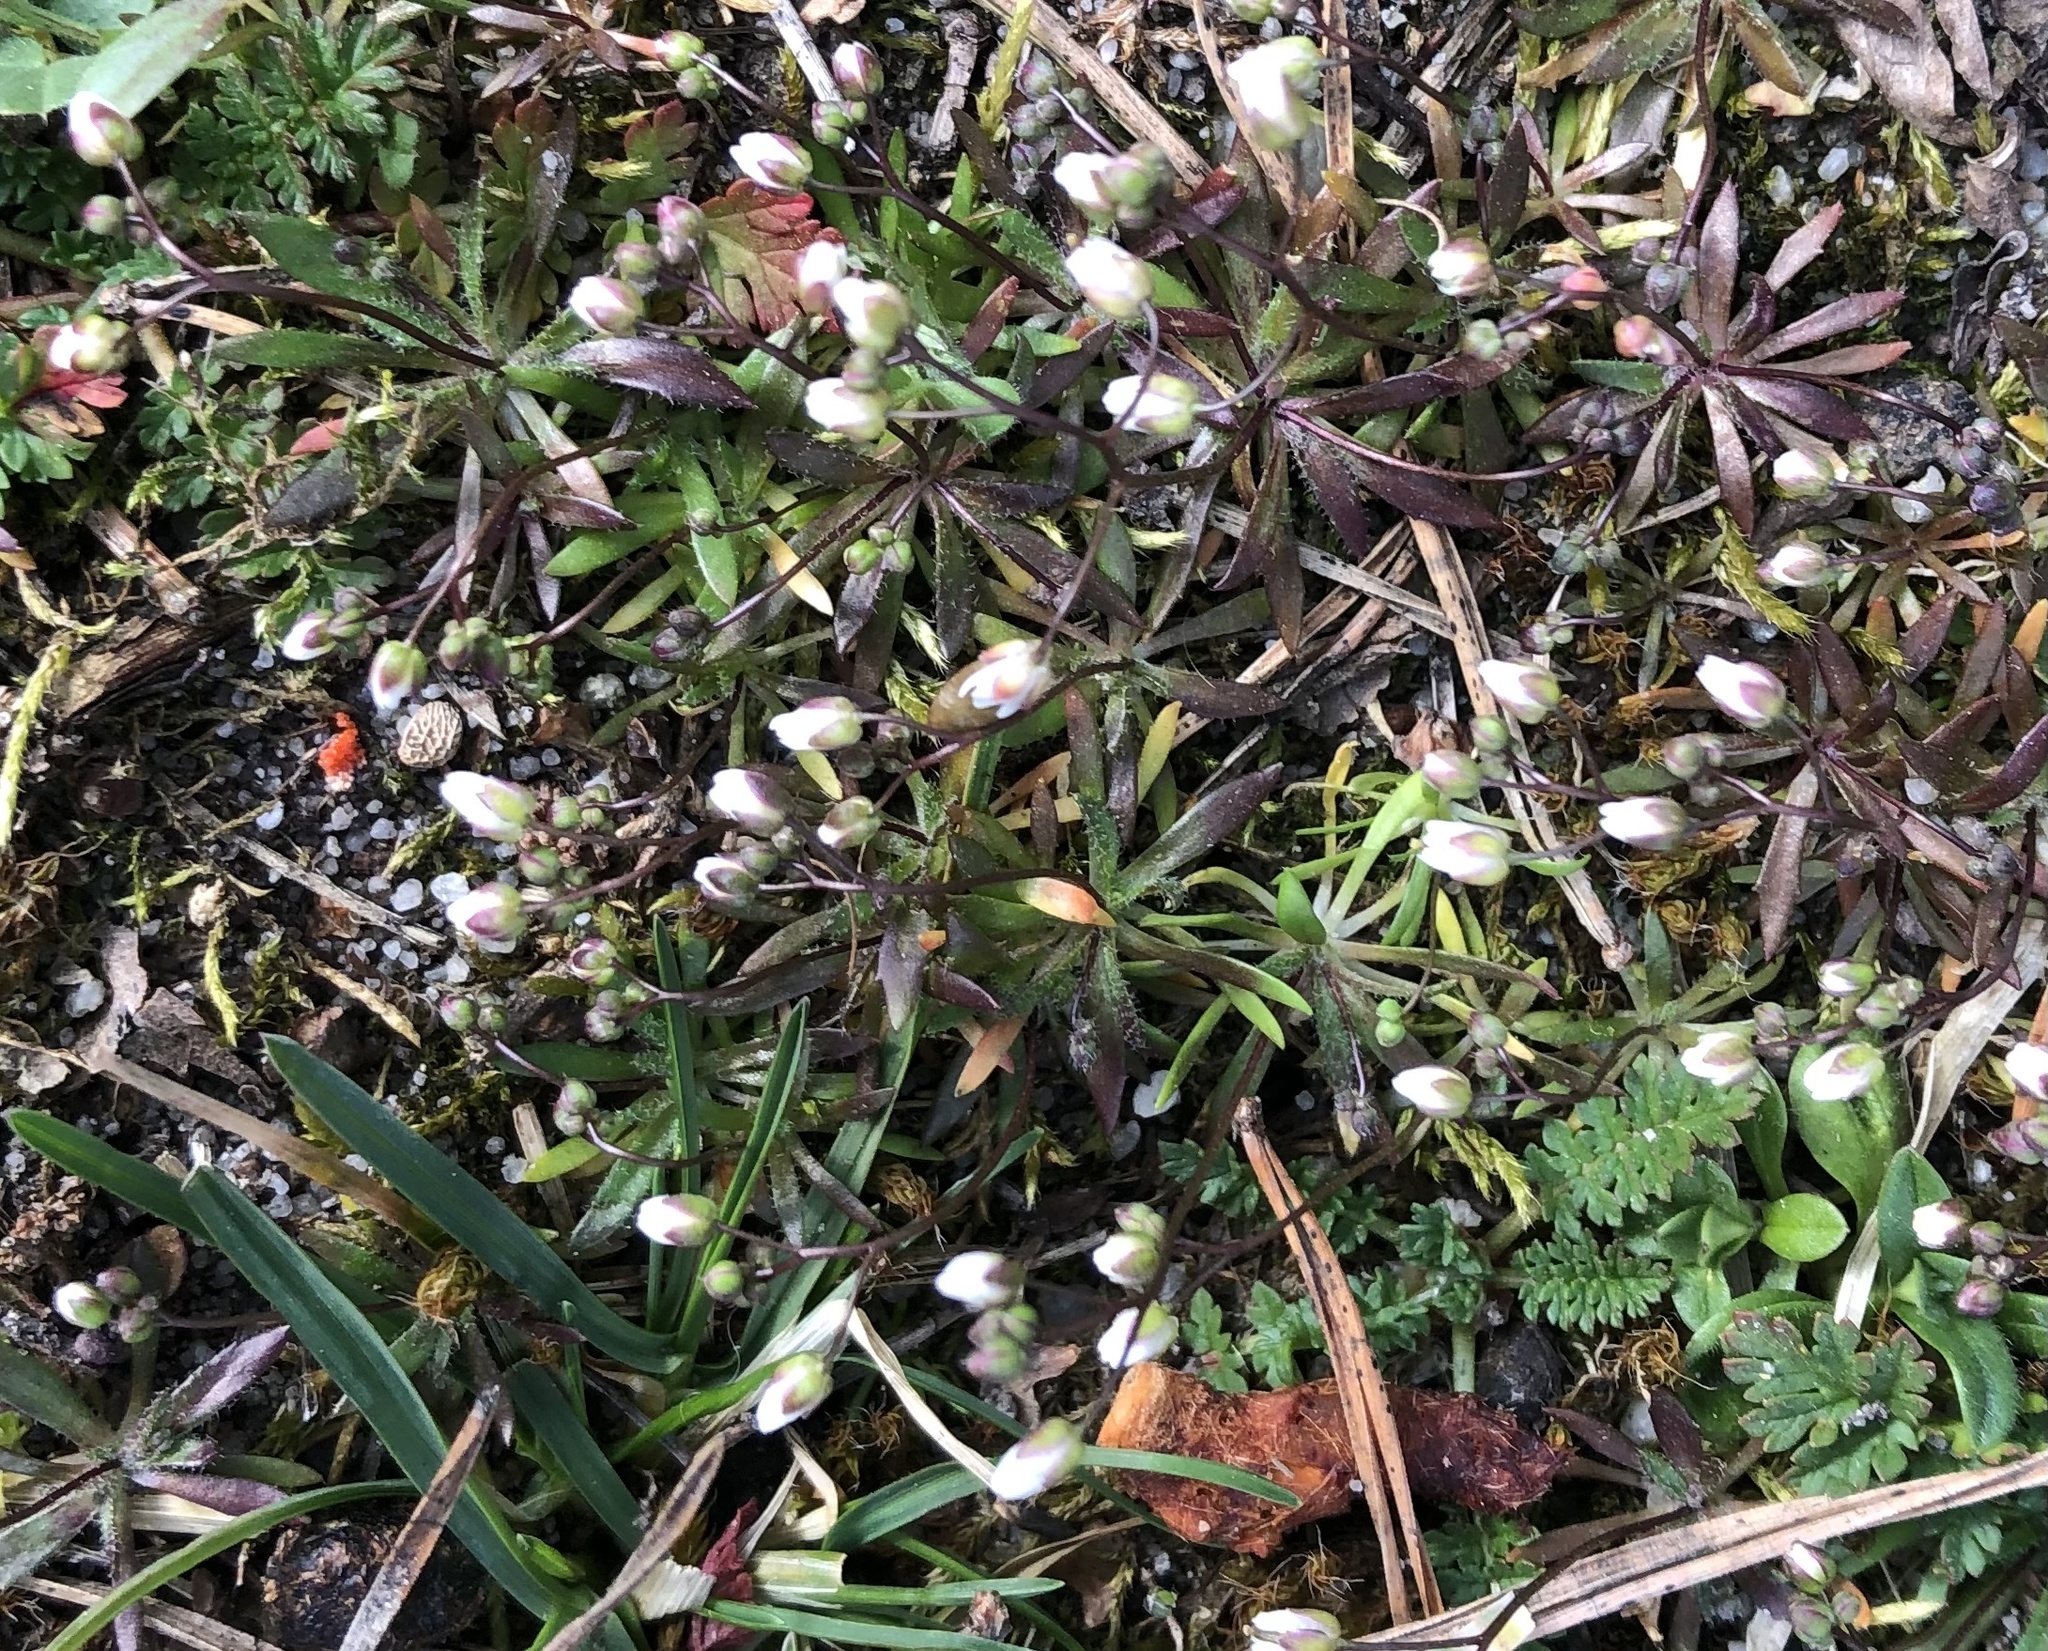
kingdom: Plantae
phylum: Tracheophyta
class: Magnoliopsida
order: Brassicales
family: Brassicaceae
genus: Draba
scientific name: Draba verna
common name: Spring draba
